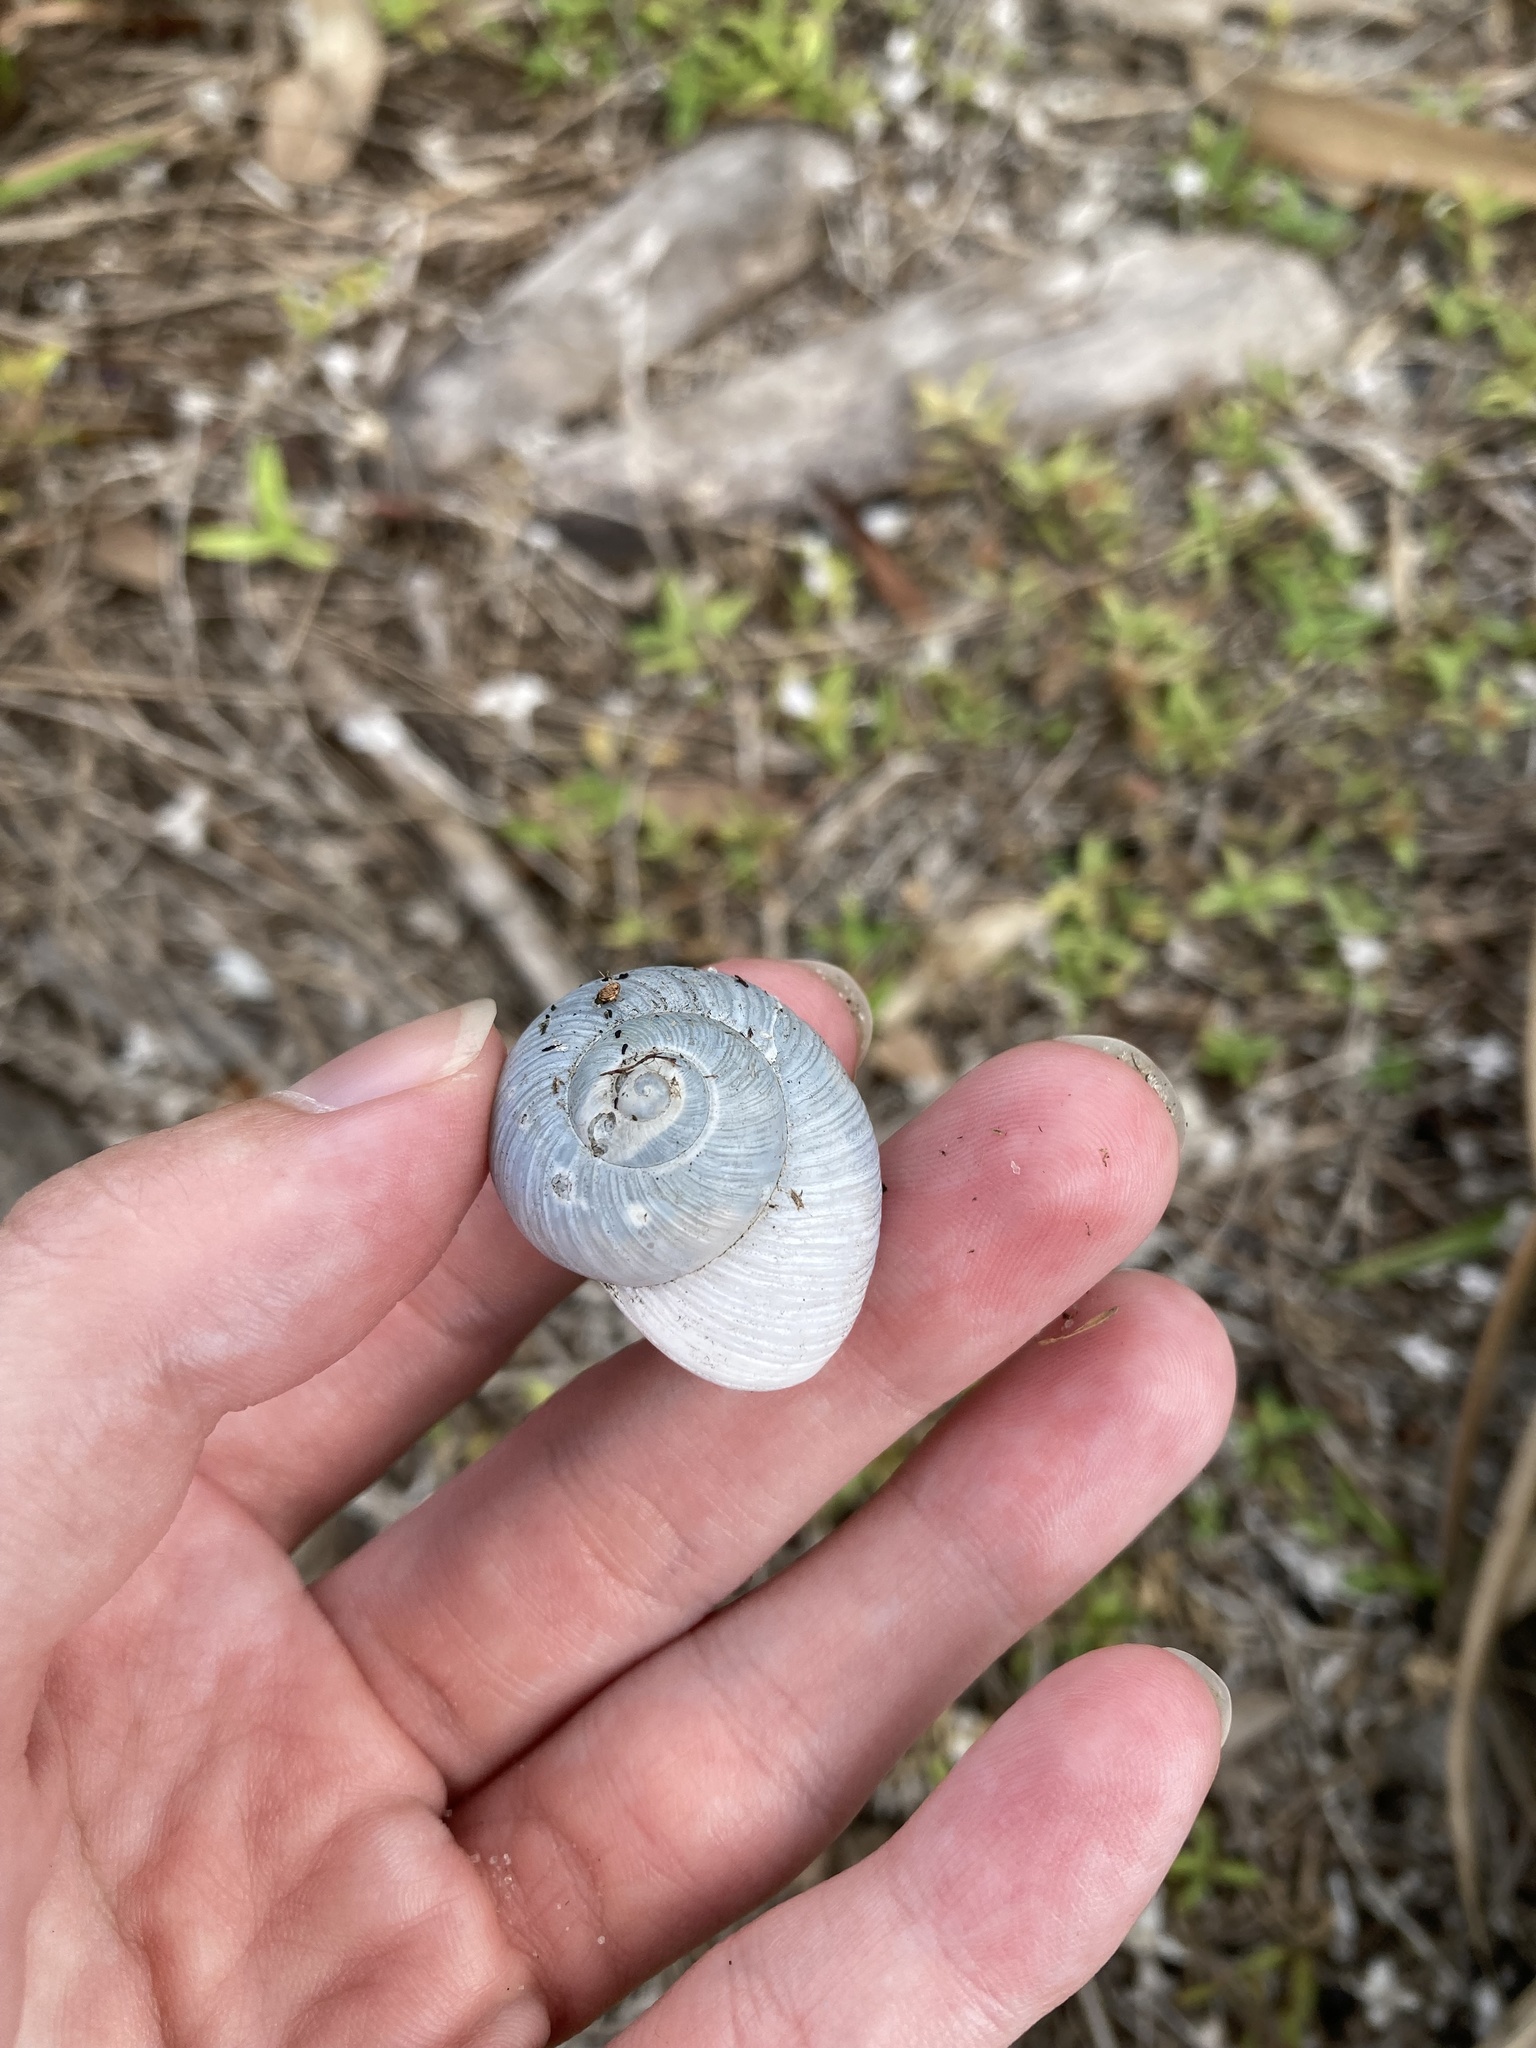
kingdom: Animalia
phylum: Mollusca
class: Gastropoda
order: Stylommatophora
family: Zachrysiidae
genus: Zachrysia
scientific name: Zachrysia provisoria
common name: Garden zachrysia
